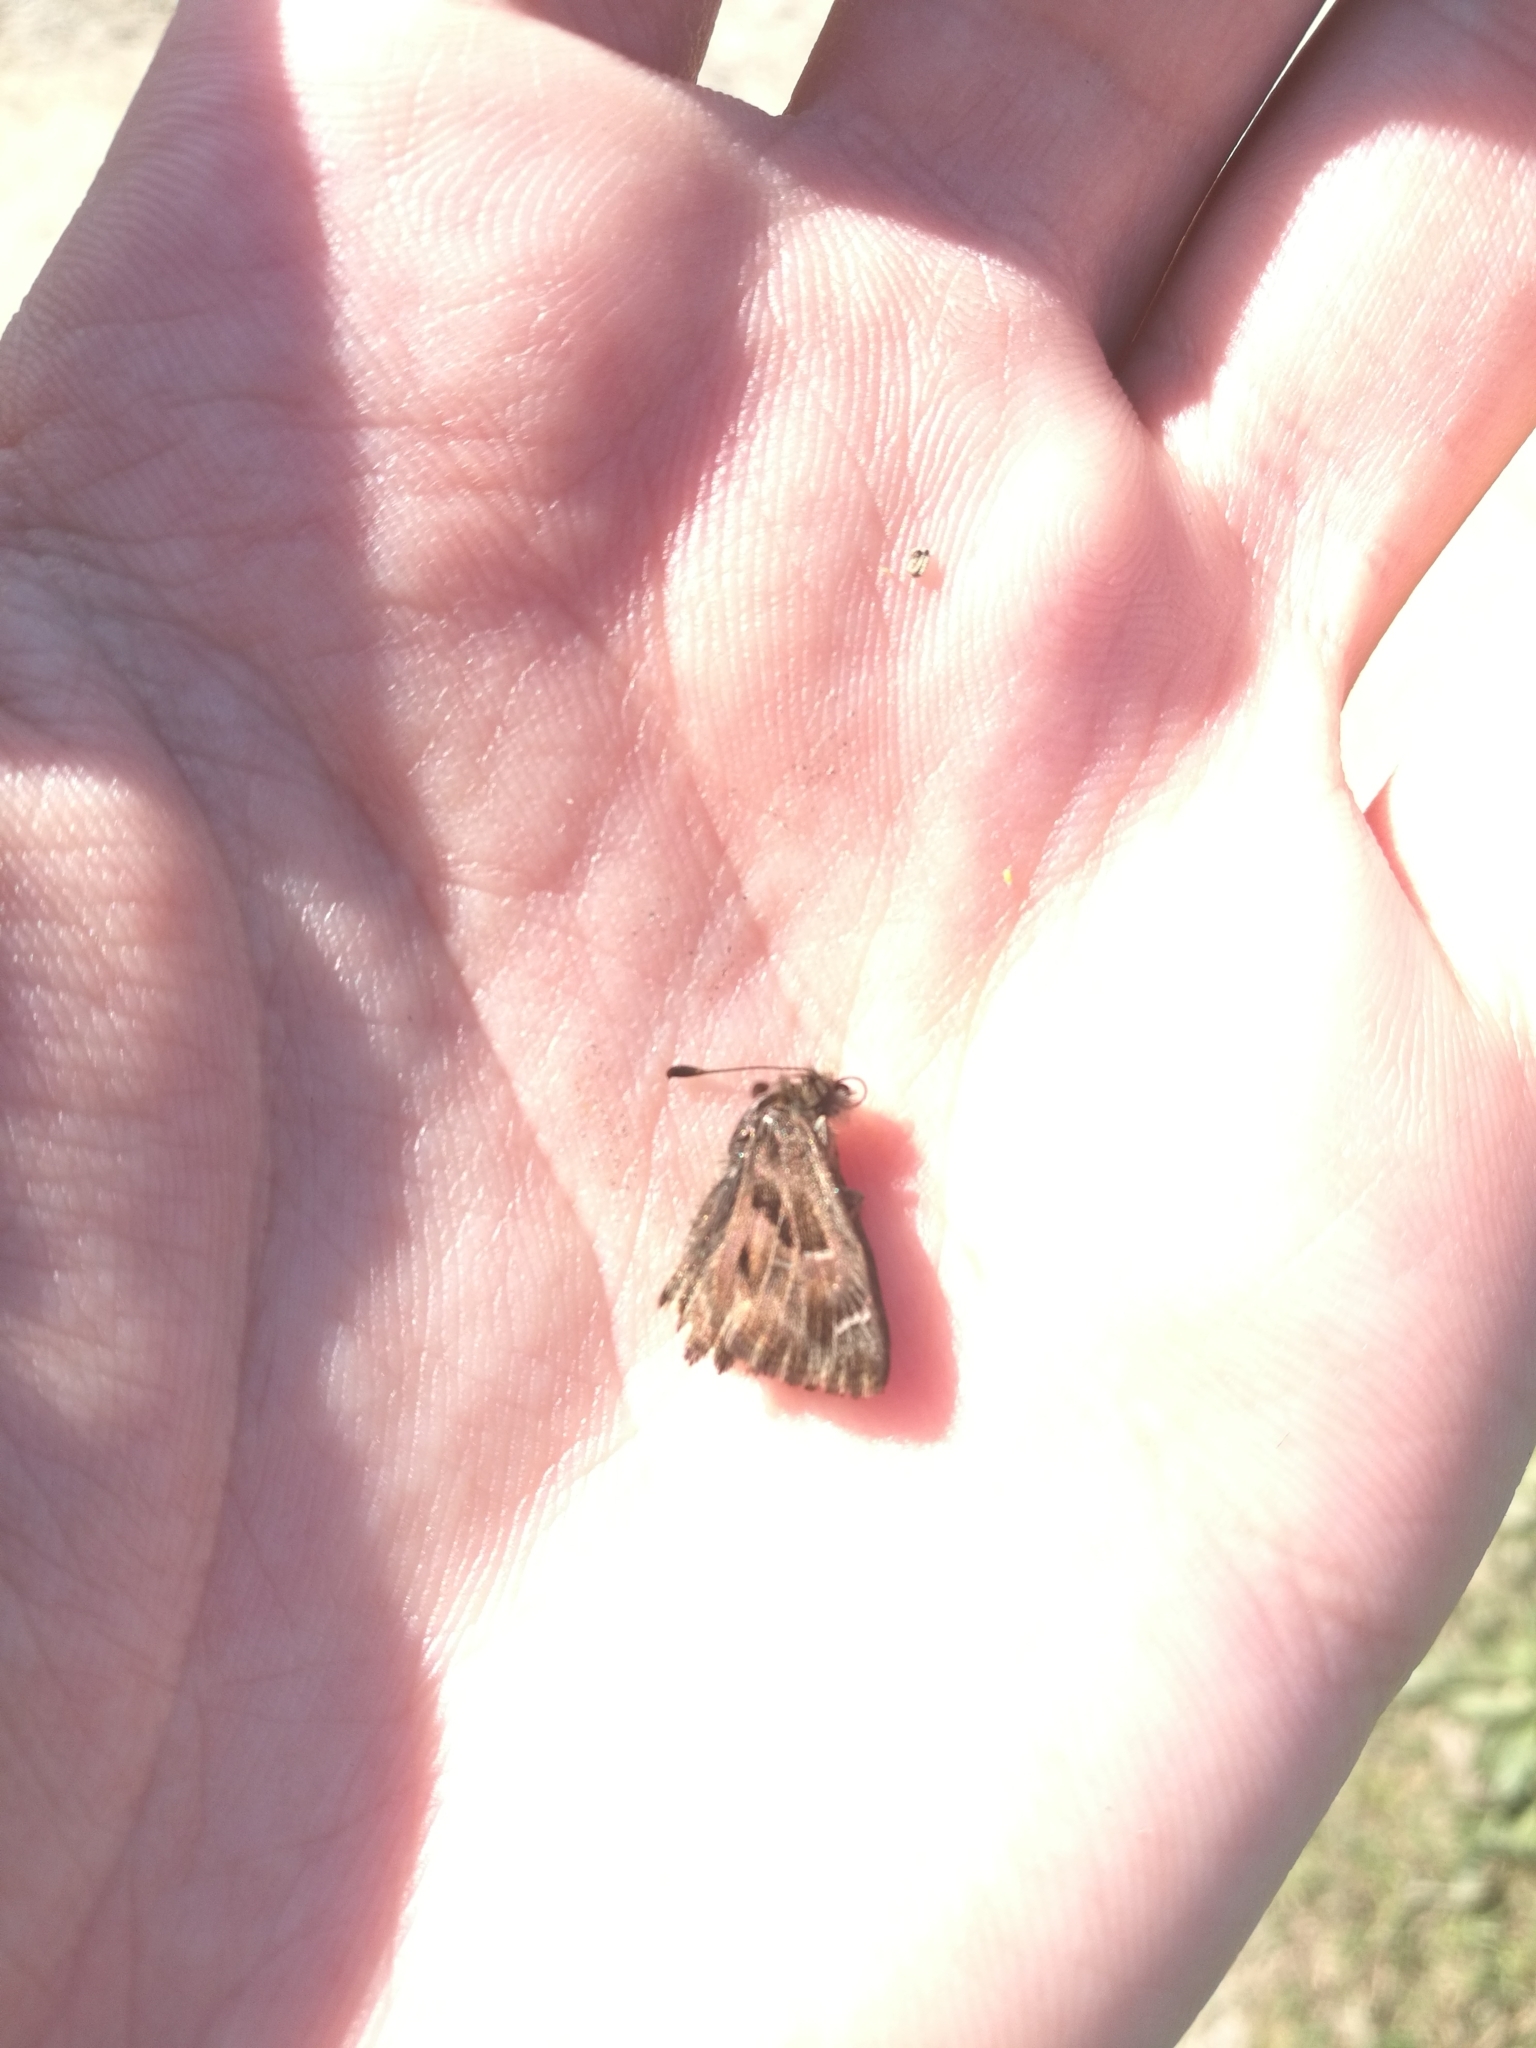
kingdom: Animalia
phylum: Arthropoda
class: Insecta
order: Lepidoptera
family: Hesperiidae
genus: Carcharodus
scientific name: Carcharodus alceae
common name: Mallow skipper
